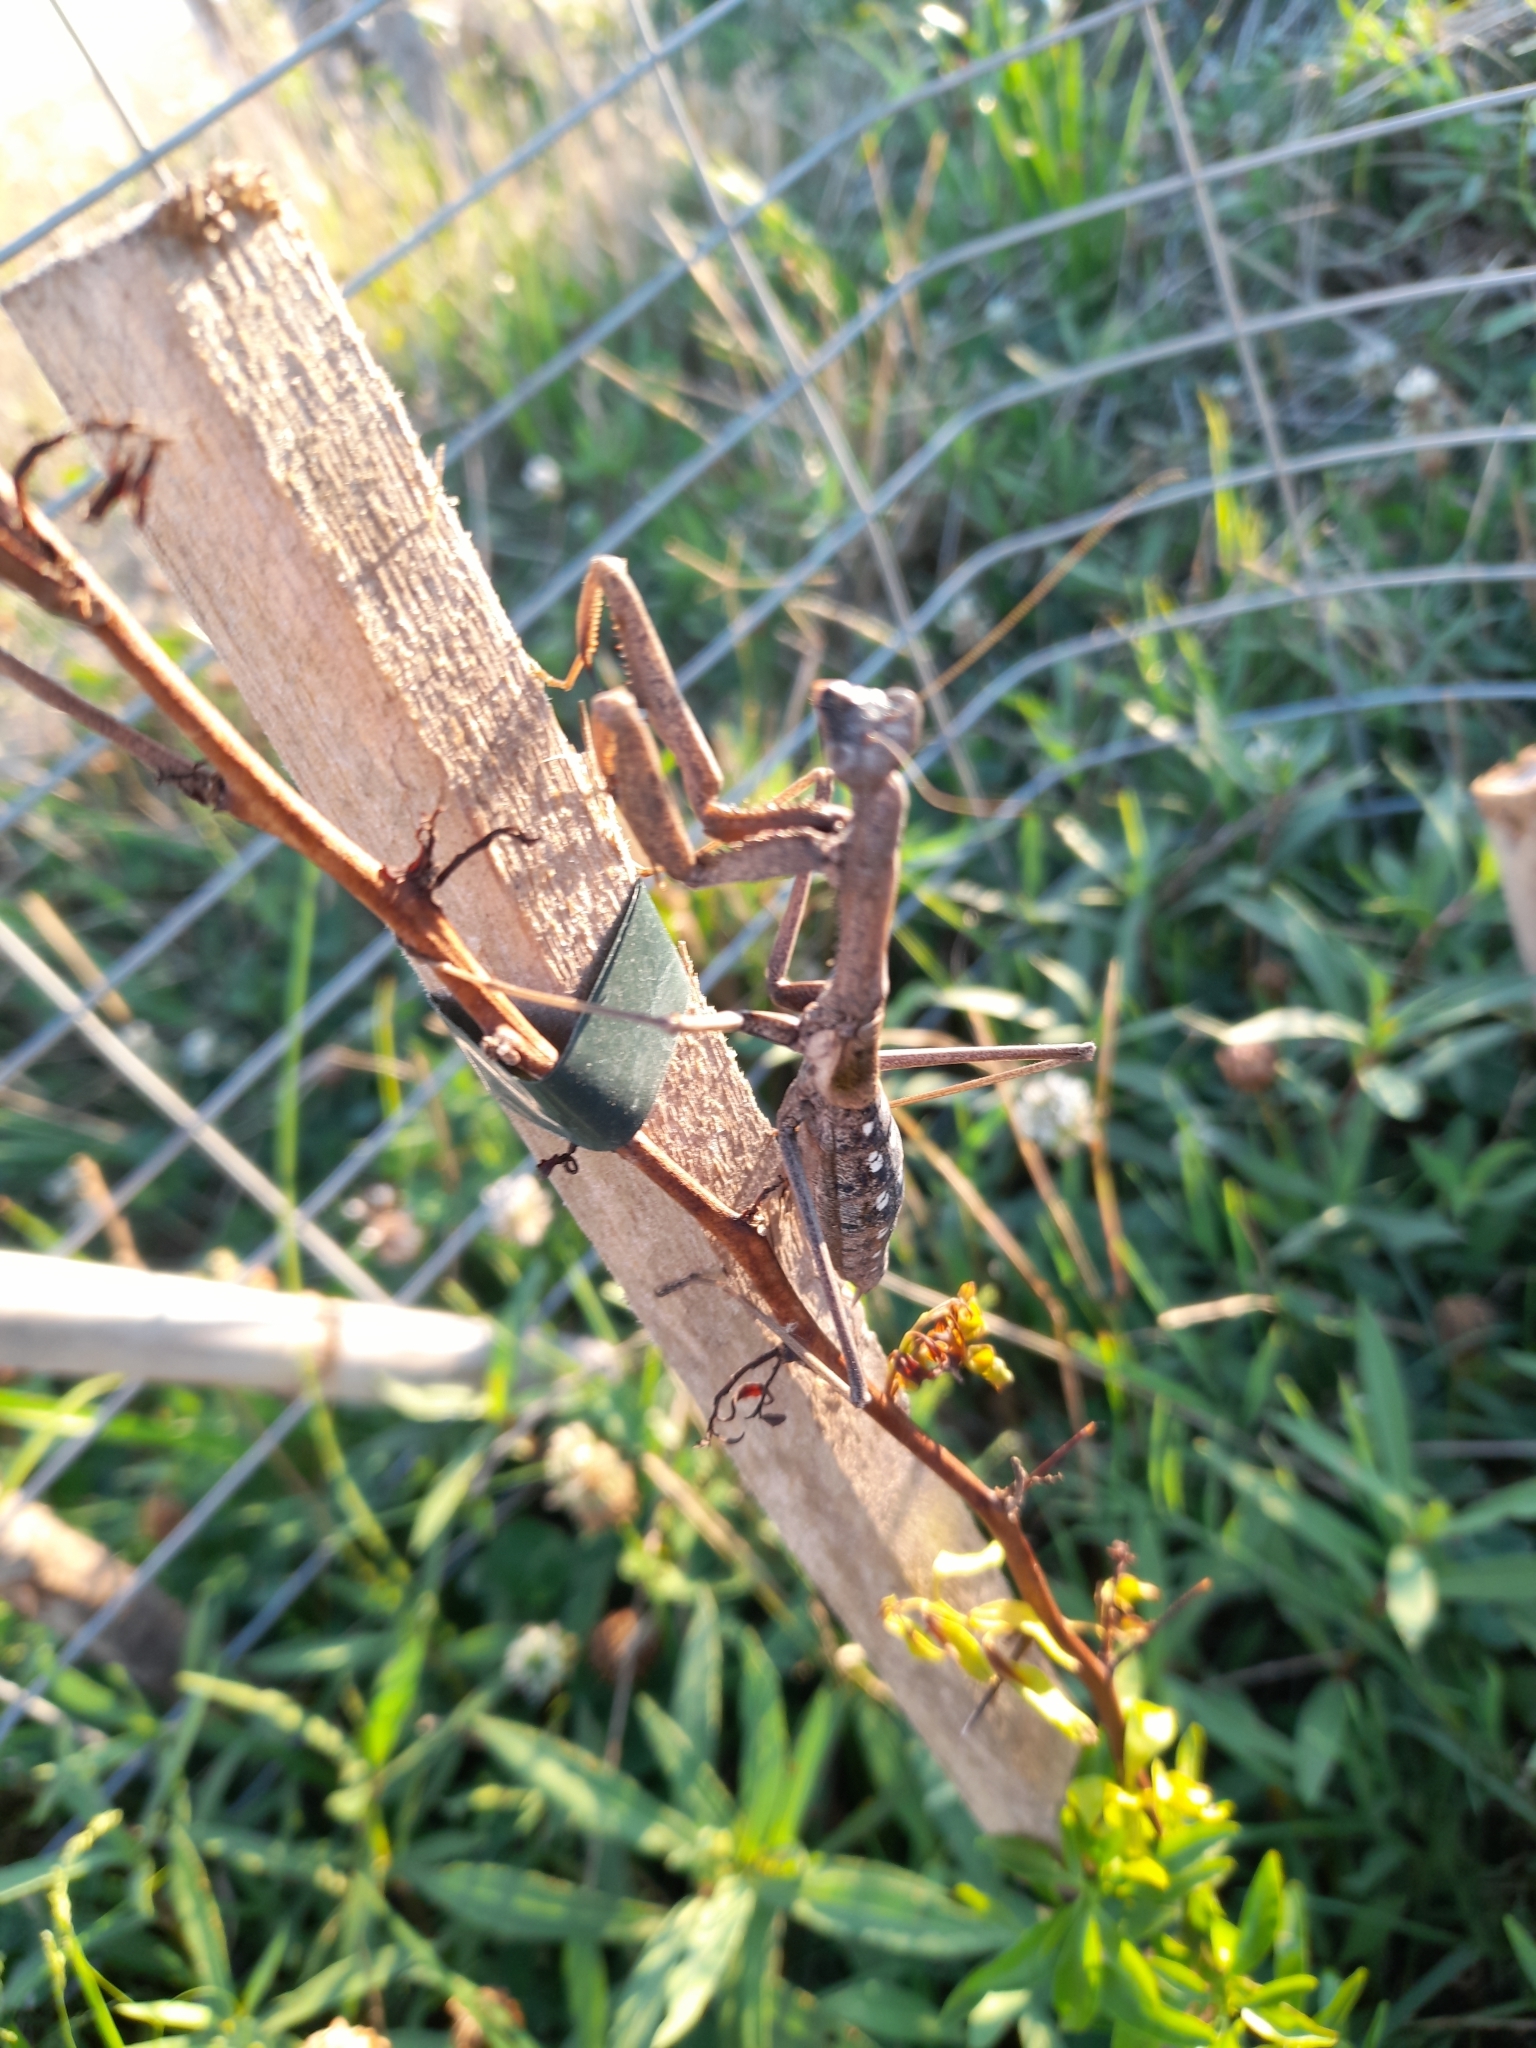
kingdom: Animalia
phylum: Arthropoda
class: Insecta
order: Mantodea
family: Coptopterygidae
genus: Coptopteryx
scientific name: Coptopteryx gayi
